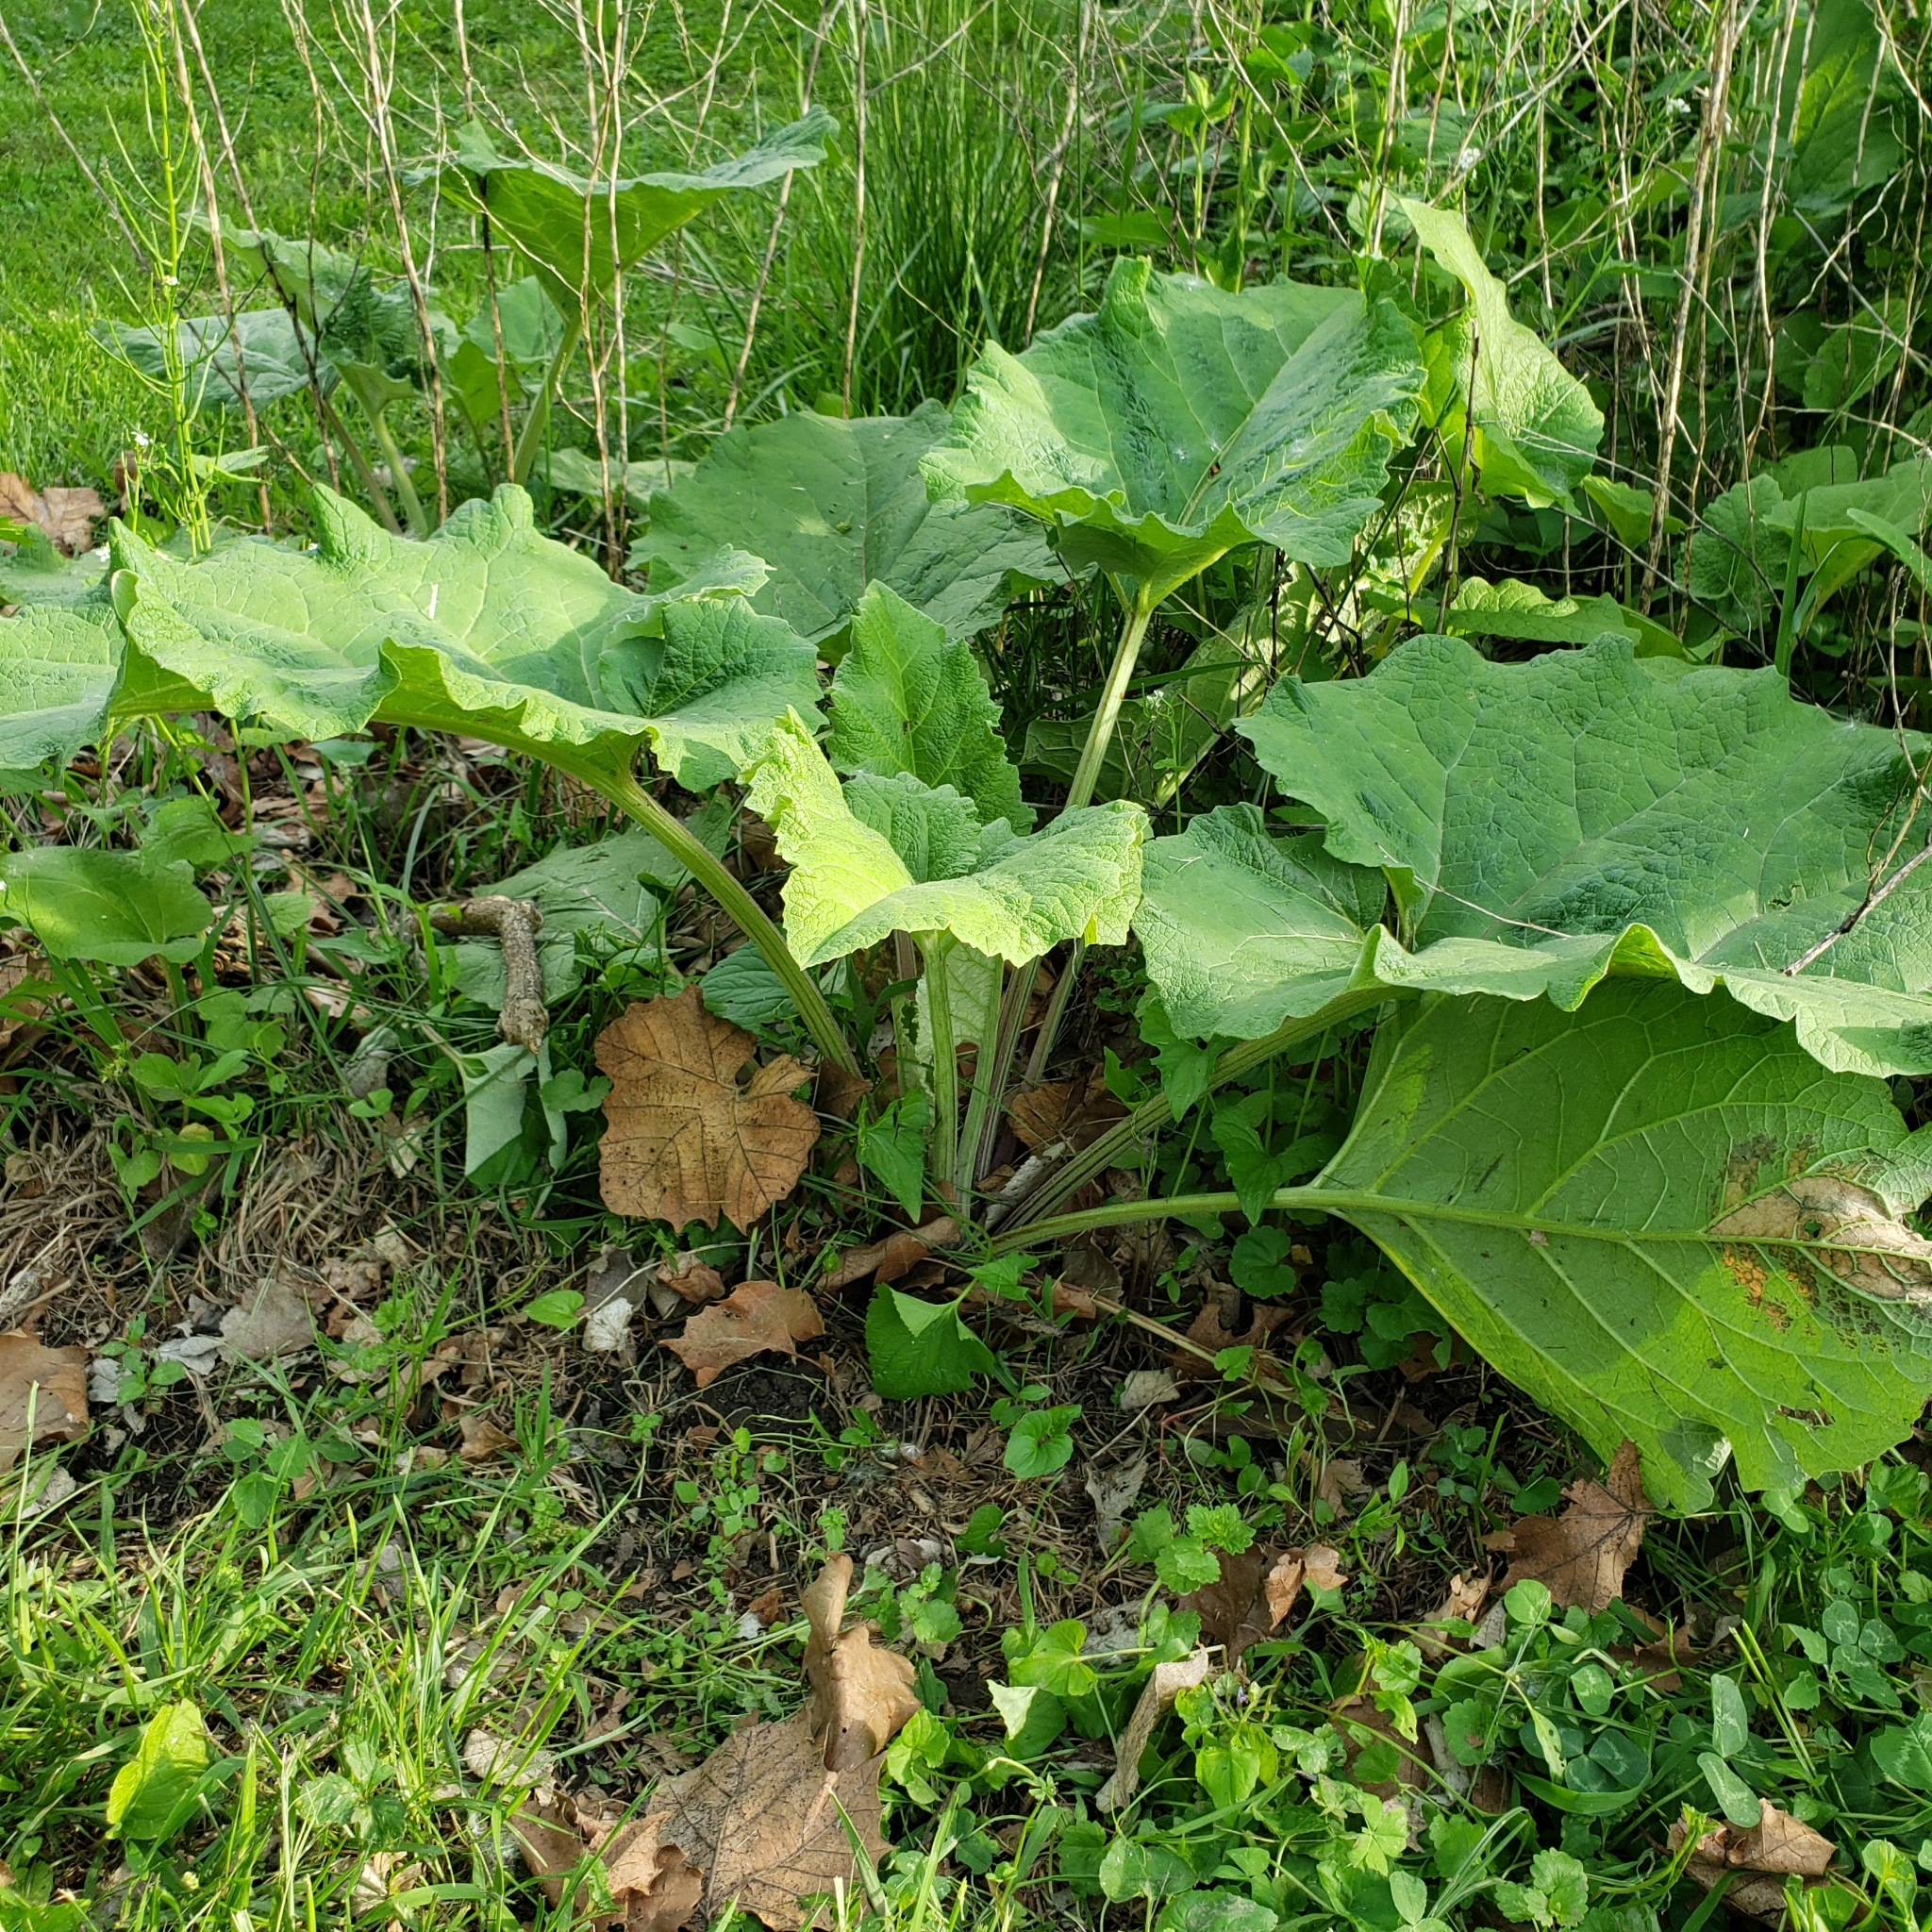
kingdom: Plantae
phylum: Tracheophyta
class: Magnoliopsida
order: Asterales
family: Asteraceae
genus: Arctium
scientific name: Arctium minus
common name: Lesser burdock
